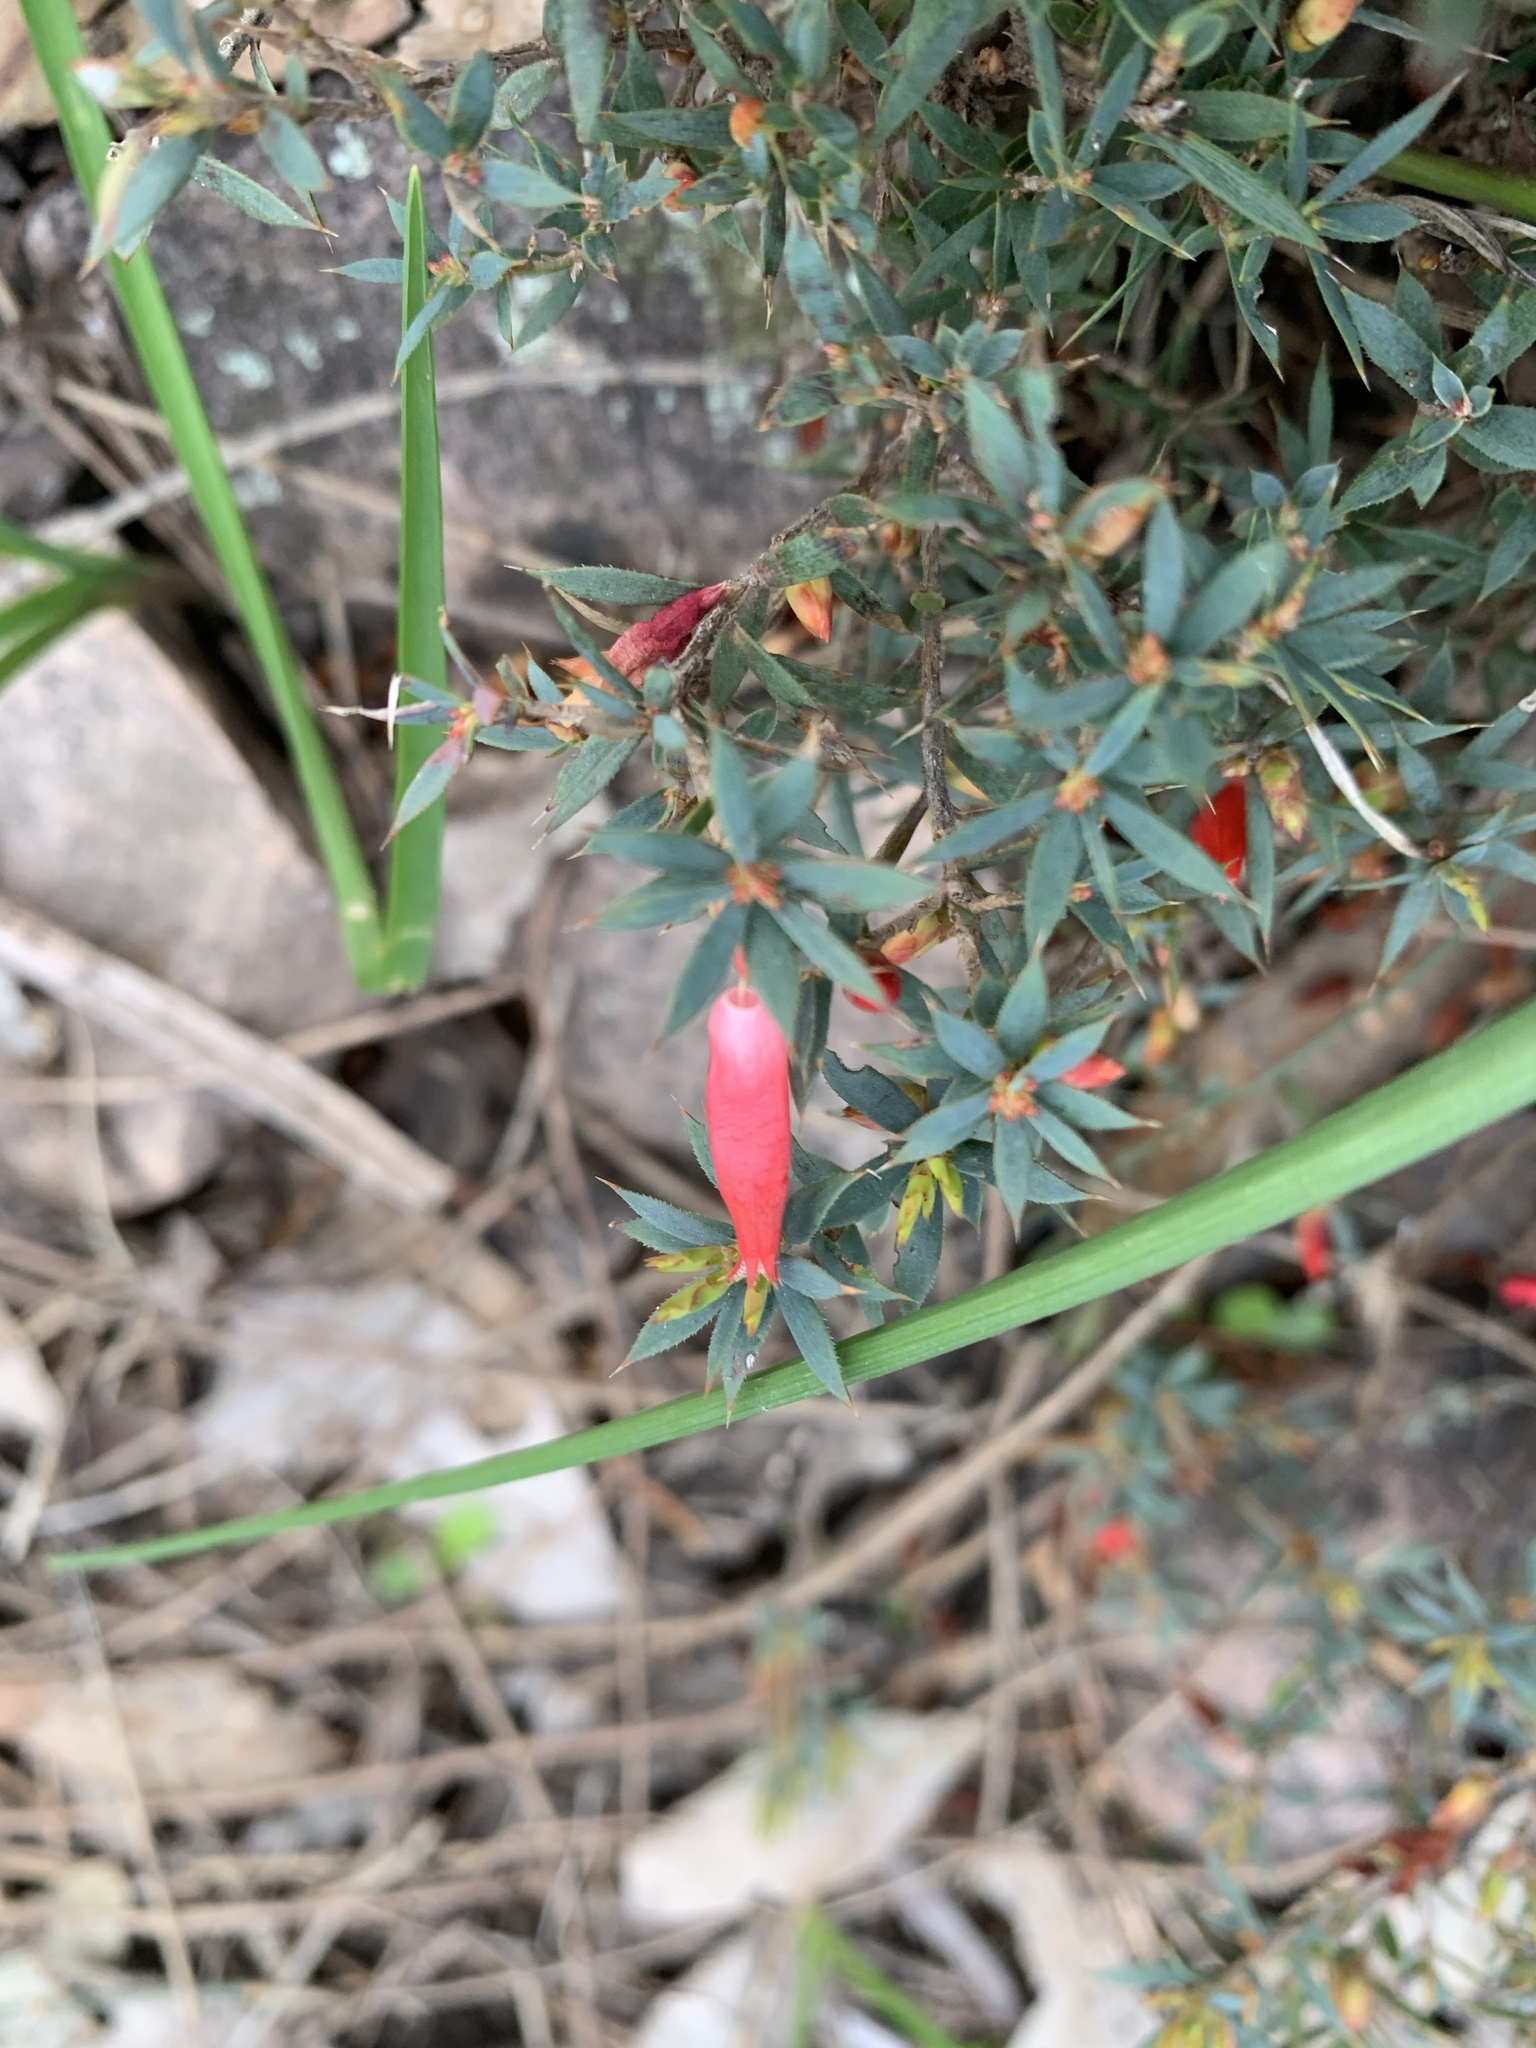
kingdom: Plantae
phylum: Tracheophyta
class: Magnoliopsida
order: Ericales
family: Ericaceae
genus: Styphelia
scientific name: Styphelia humifusa
